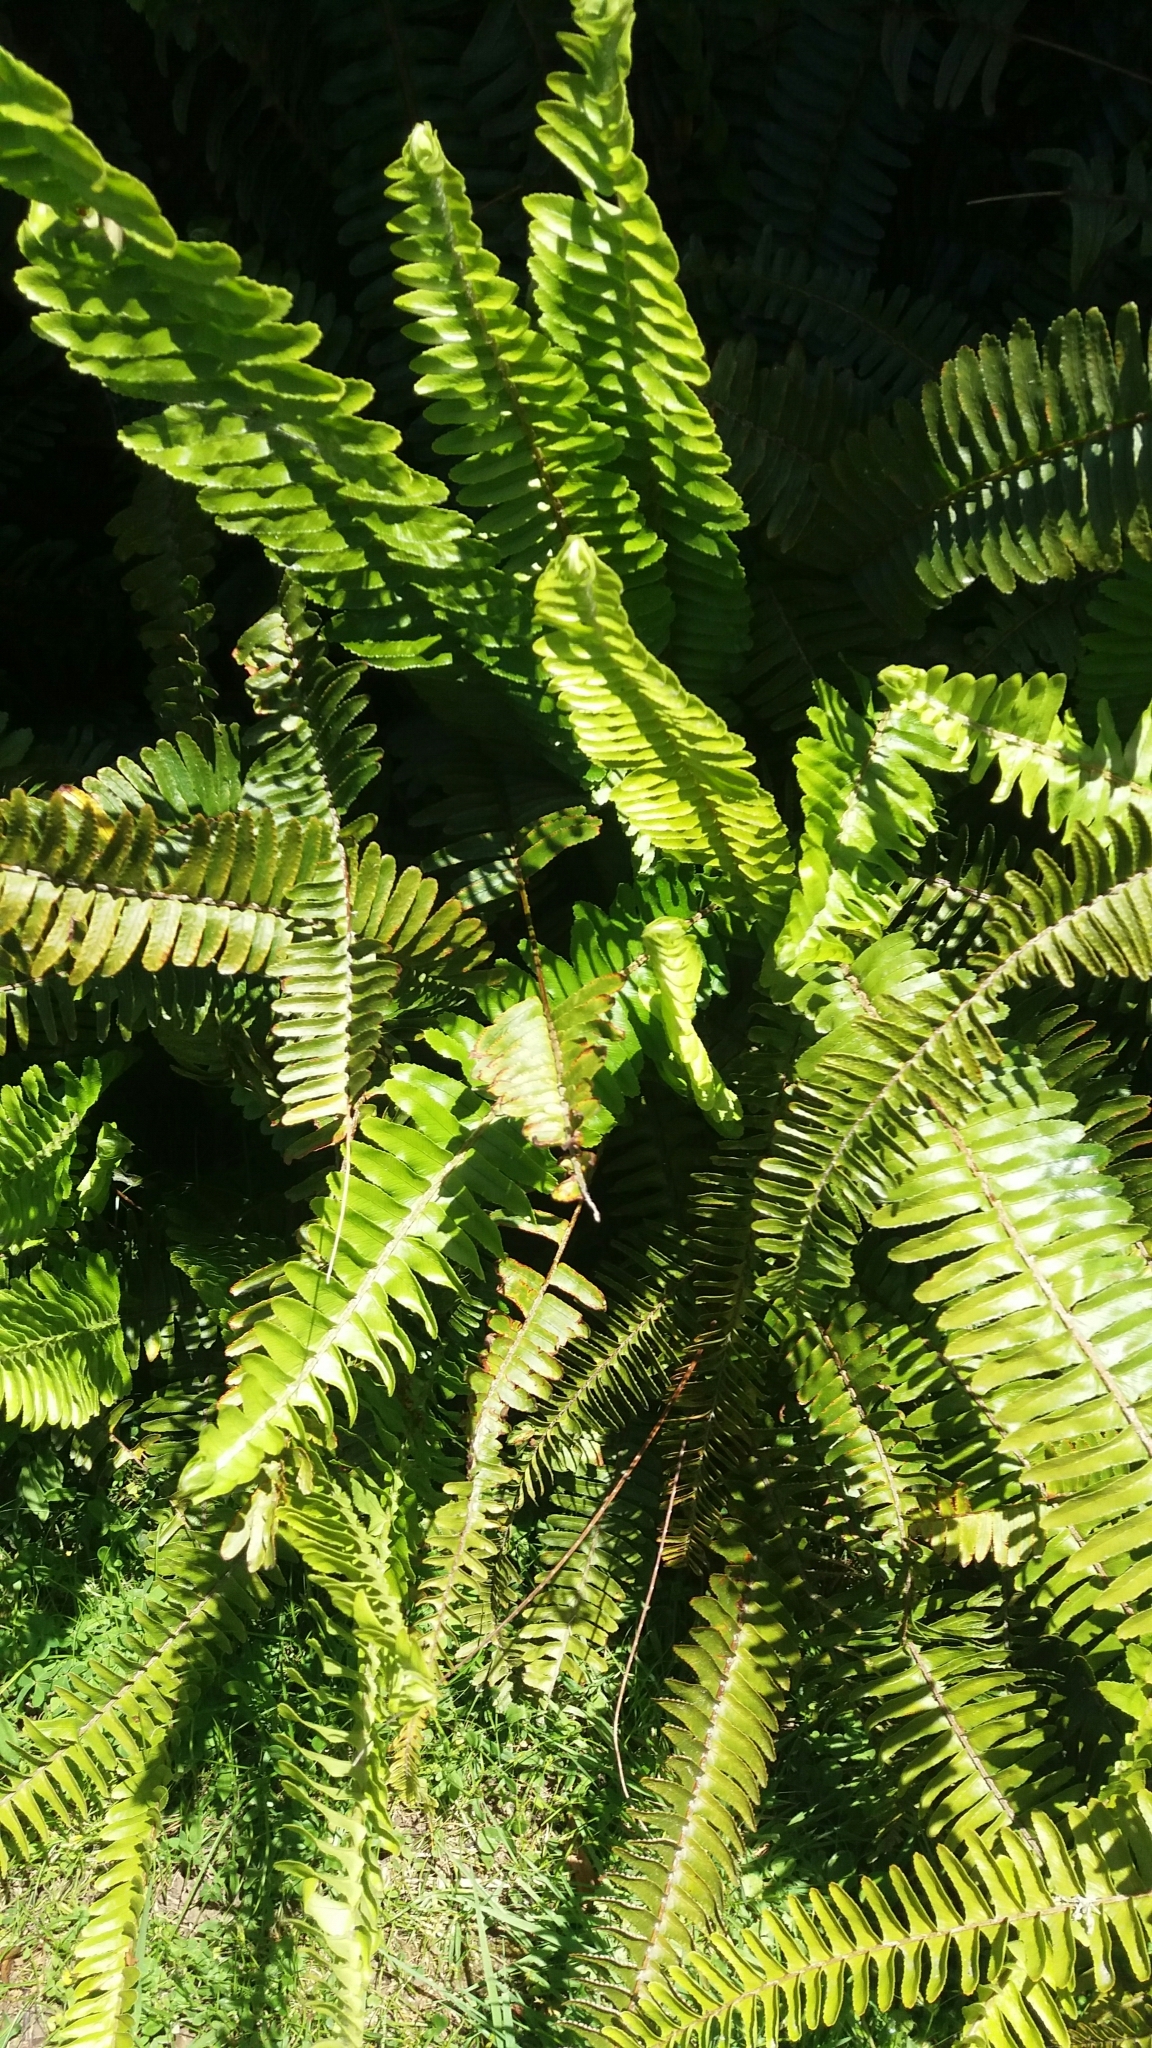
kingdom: Plantae
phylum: Tracheophyta
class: Polypodiopsida
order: Polypodiales
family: Nephrolepidaceae
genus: Nephrolepis
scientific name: Nephrolepis cordifolia
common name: Narrow swordfern
